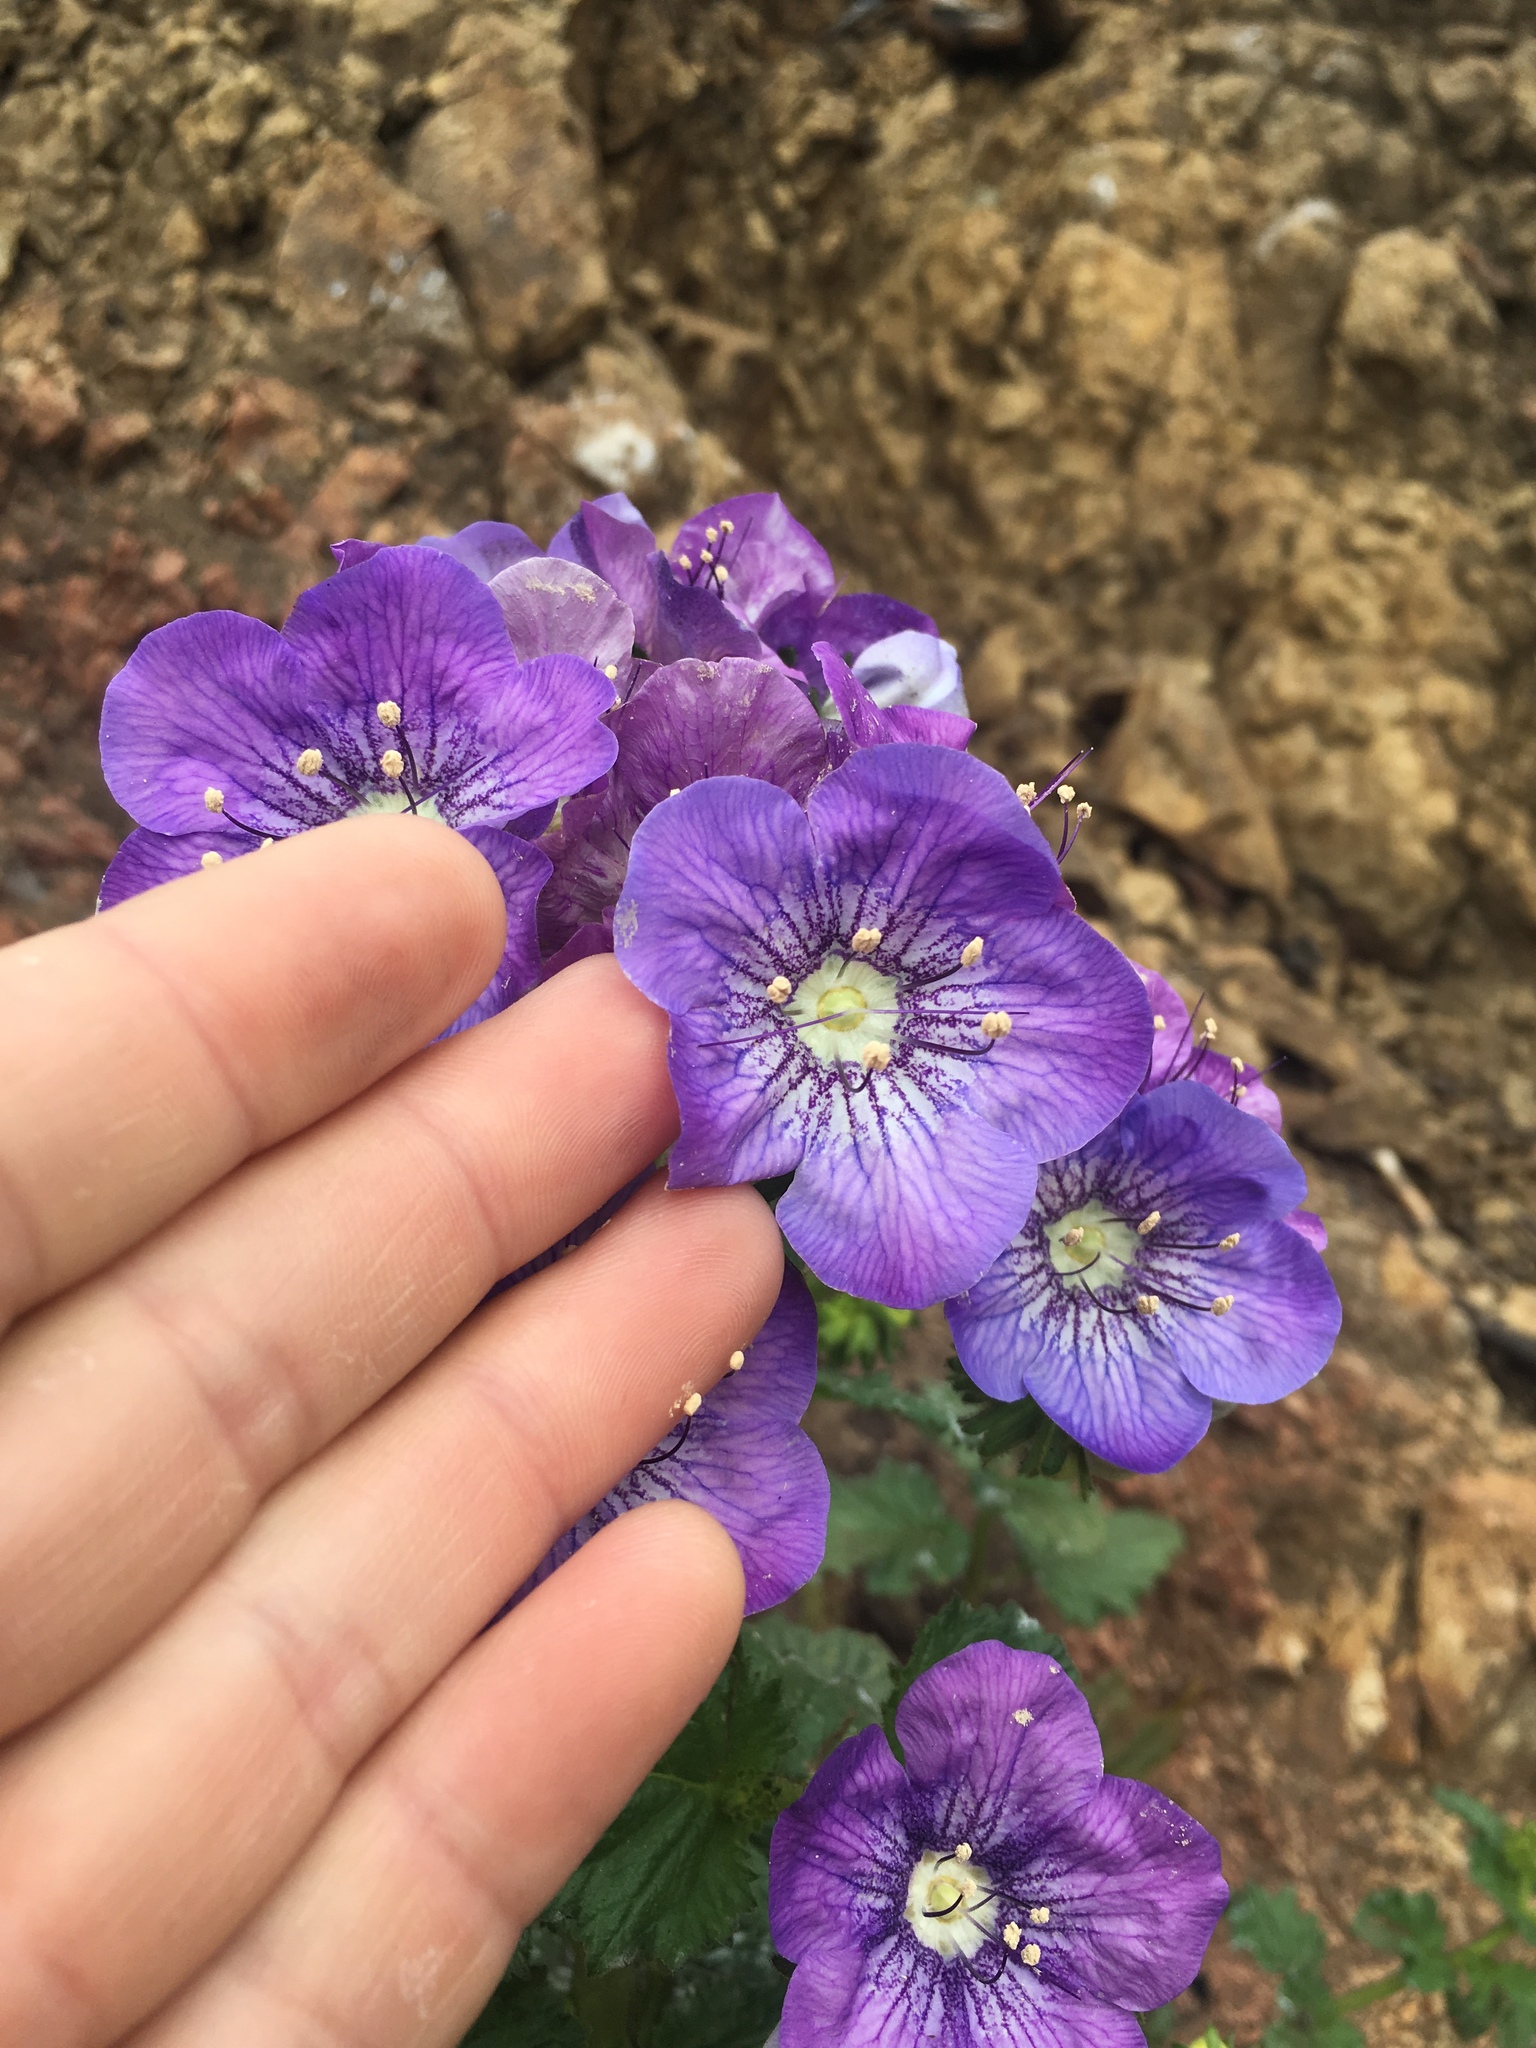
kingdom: Plantae
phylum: Tracheophyta
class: Magnoliopsida
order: Boraginales
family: Hydrophyllaceae
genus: Phacelia
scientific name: Phacelia grandiflora
